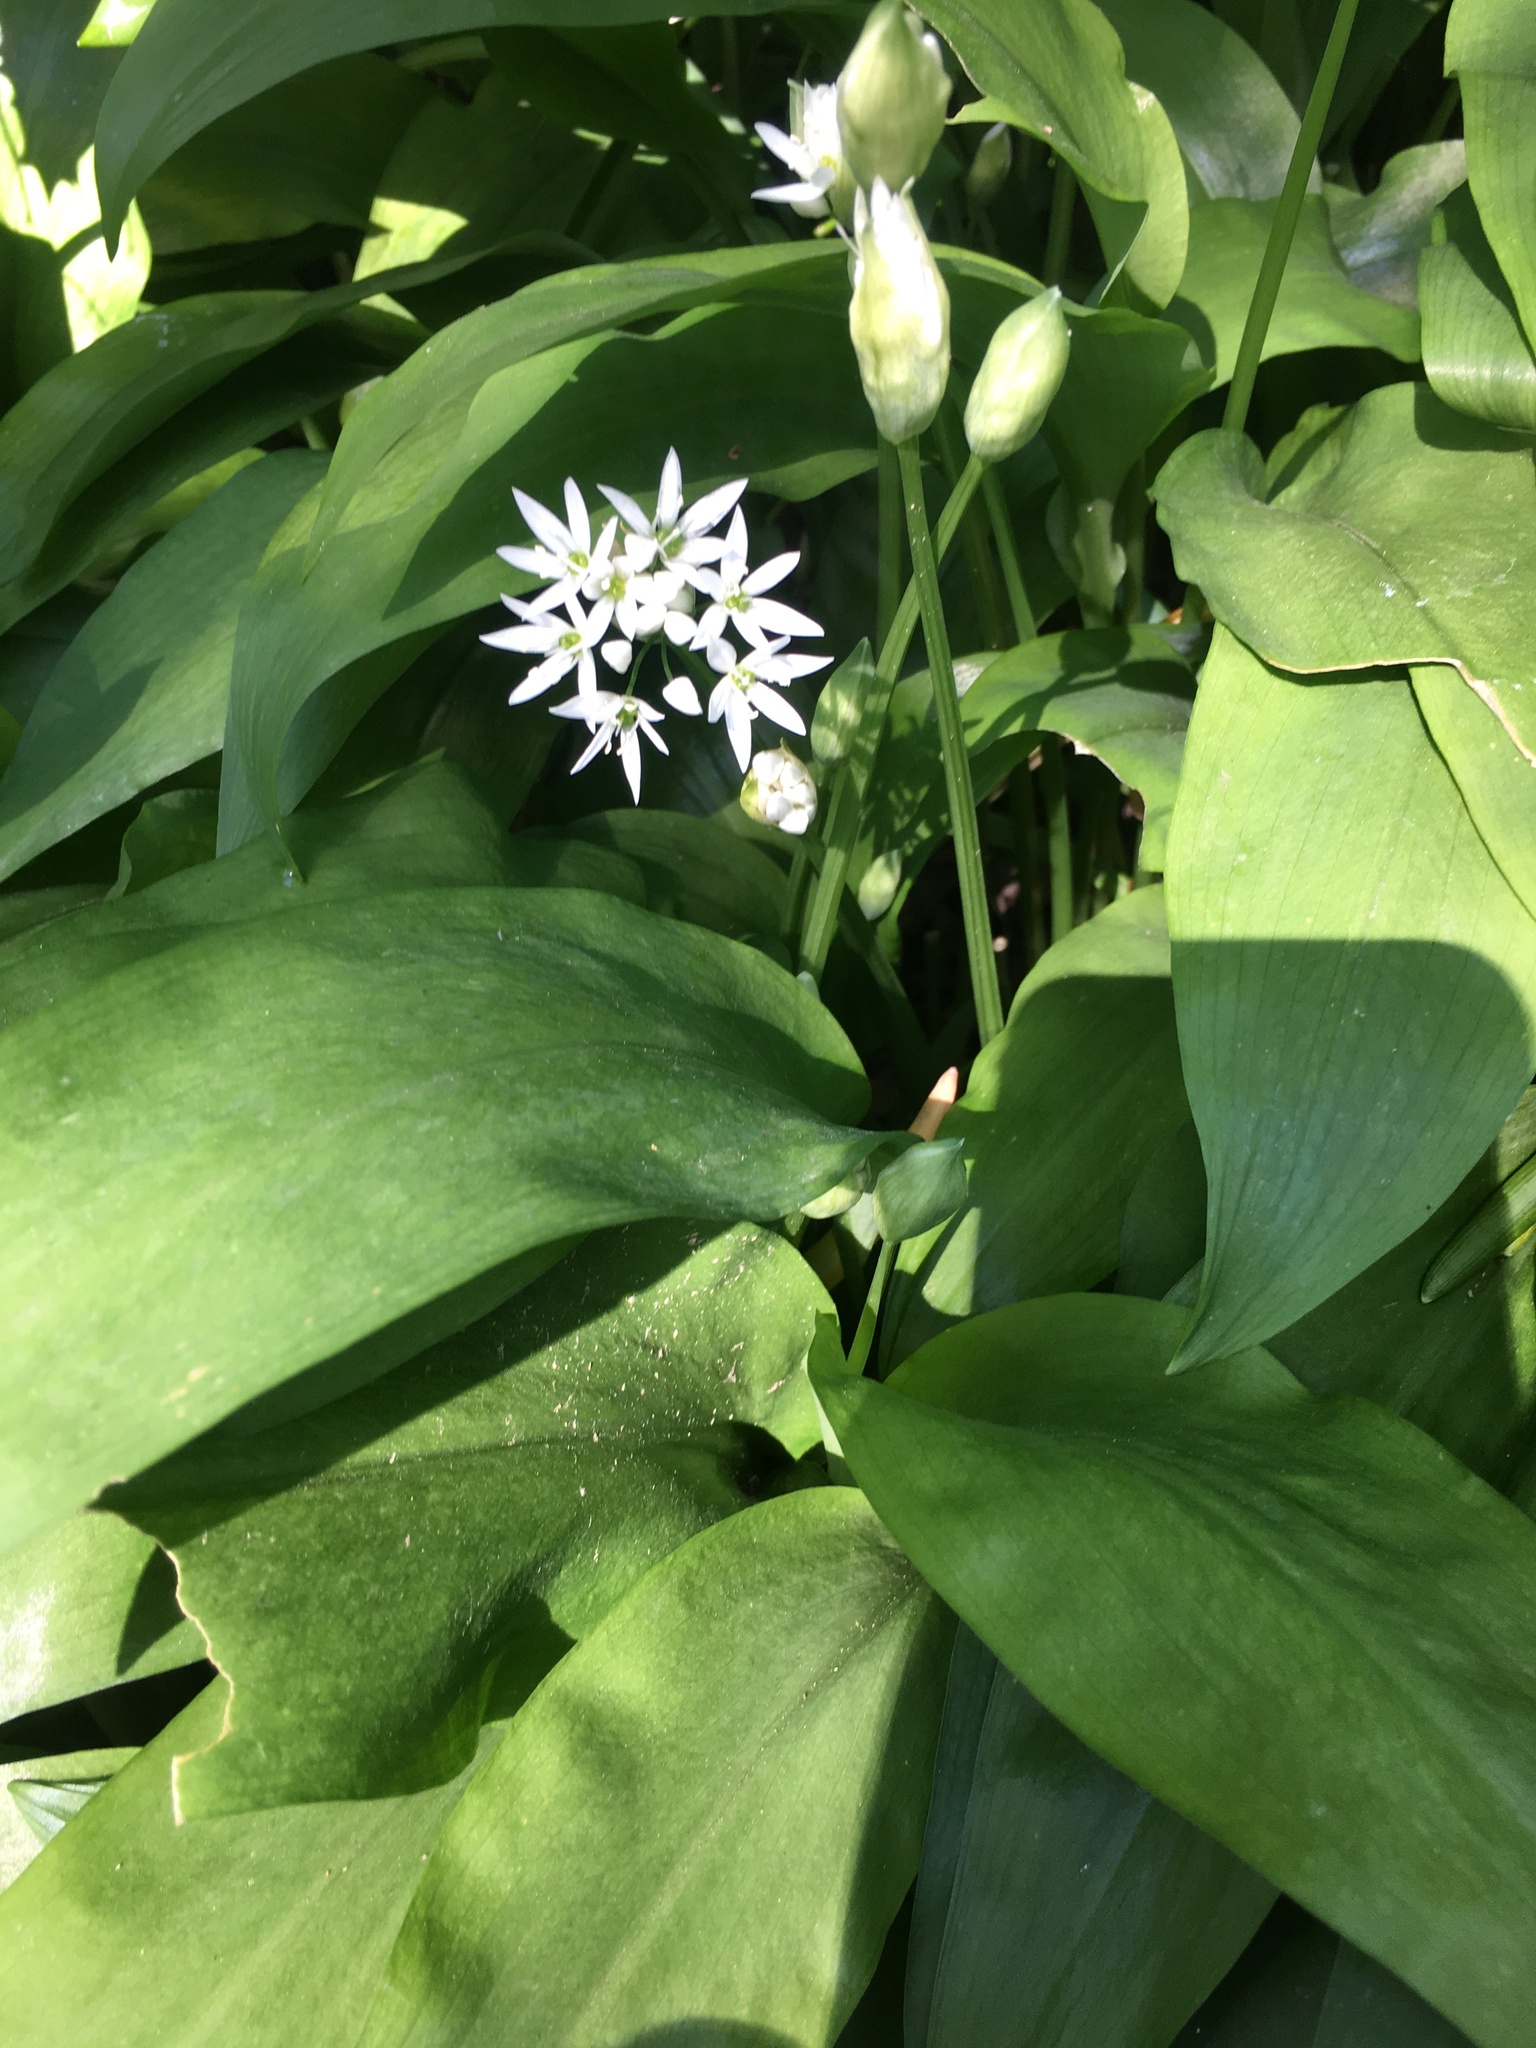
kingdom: Plantae
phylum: Tracheophyta
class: Liliopsida
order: Asparagales
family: Amaryllidaceae
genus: Allium
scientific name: Allium ursinum
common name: Ramsons
